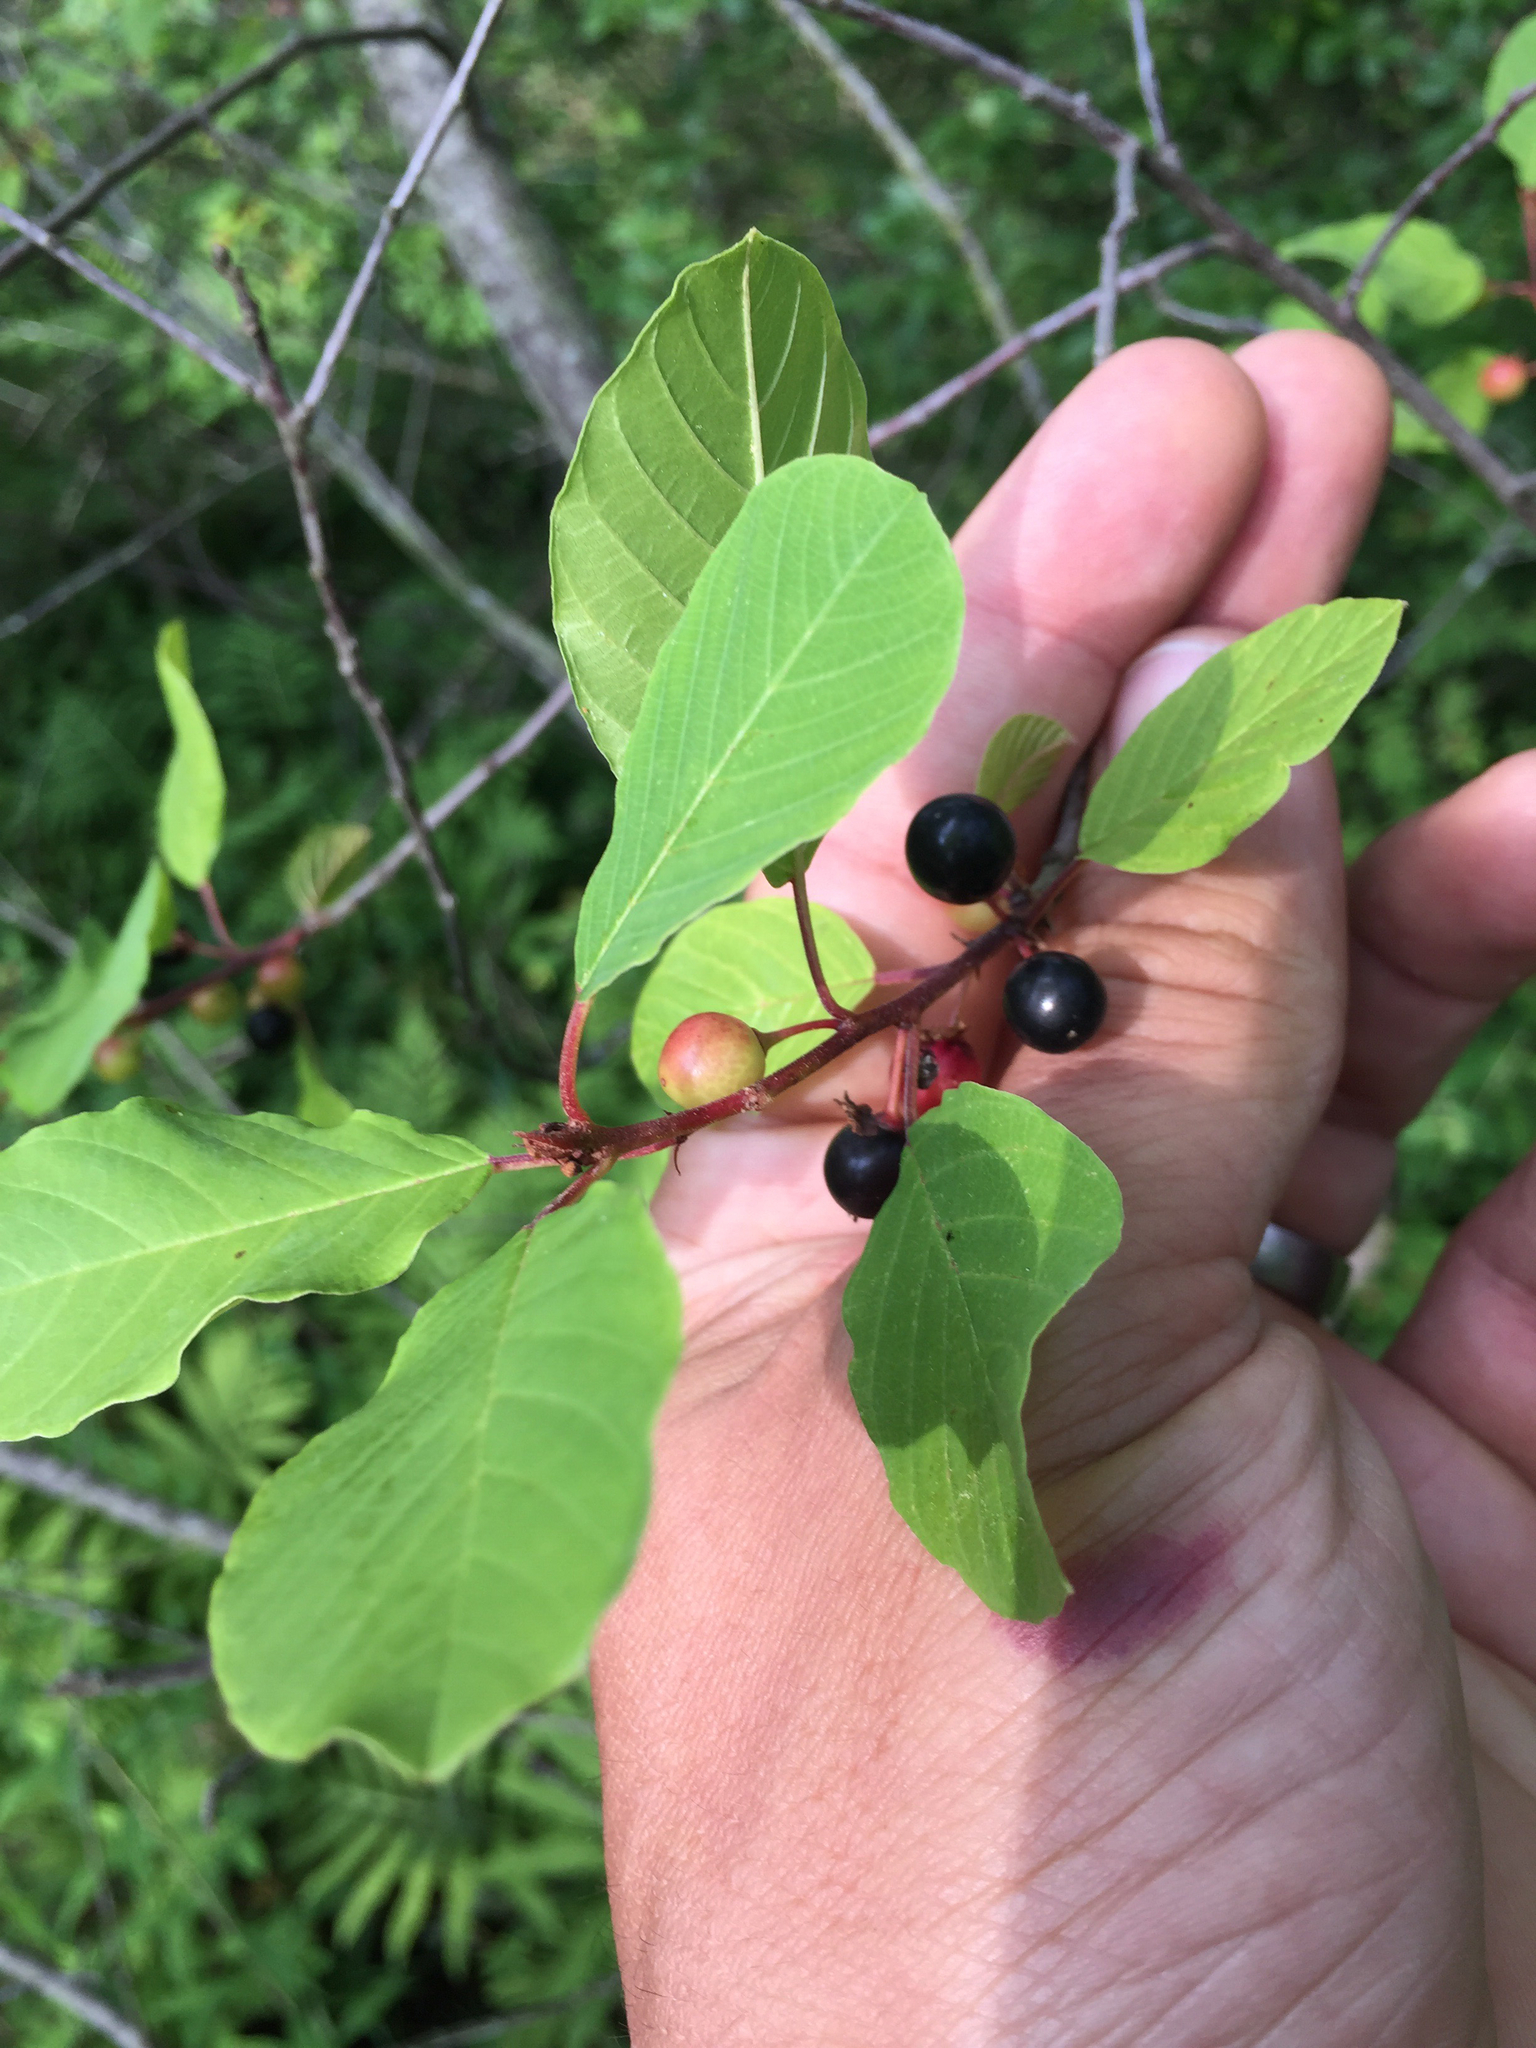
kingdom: Plantae
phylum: Tracheophyta
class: Magnoliopsida
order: Rosales
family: Rhamnaceae
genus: Frangula
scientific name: Frangula alnus
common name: Alder buckthorn
